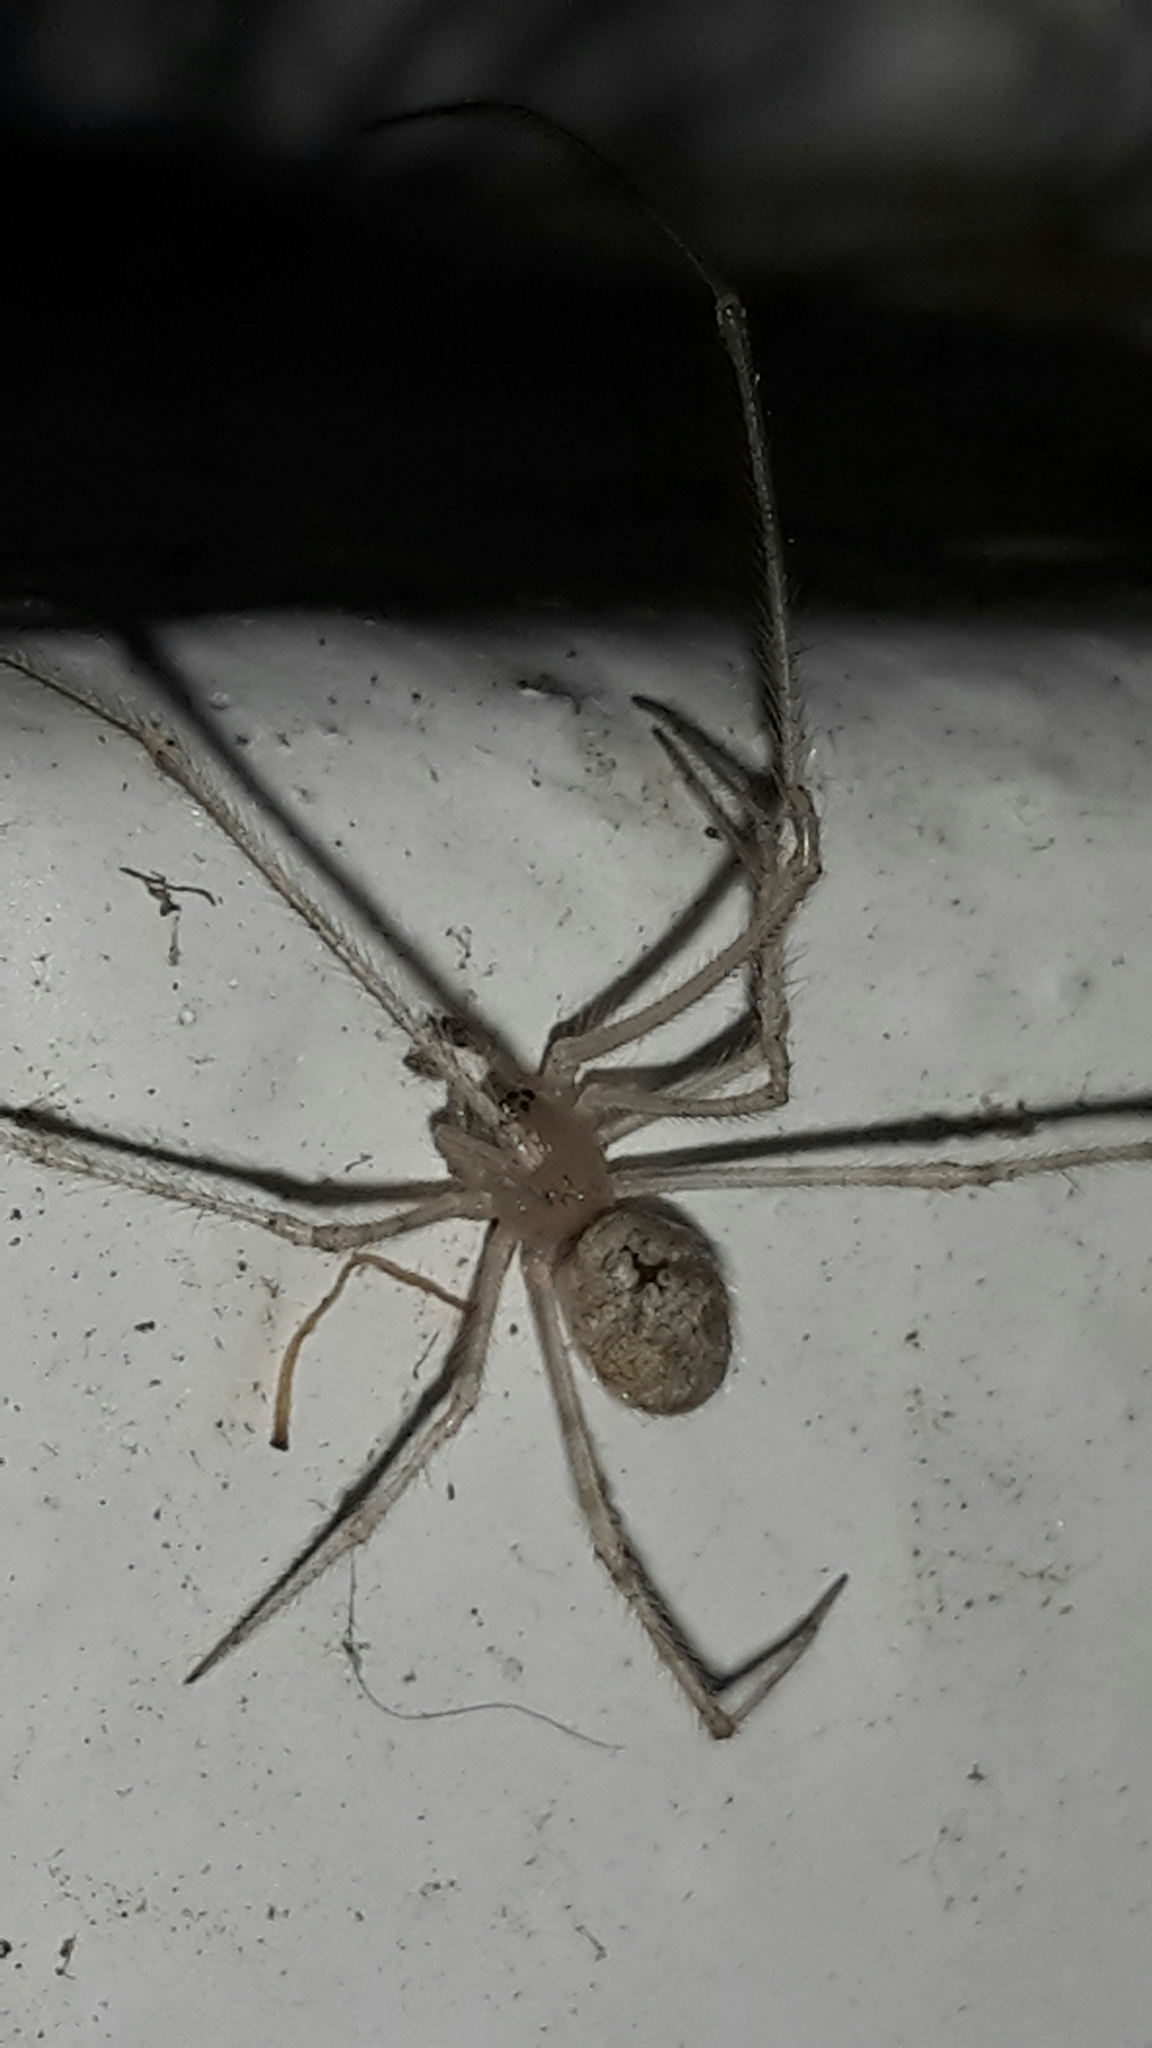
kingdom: Animalia
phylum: Arthropoda
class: Arachnida
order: Araneae
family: Theridiidae
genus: Cryptachaea
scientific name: Cryptachaea gigantipes
